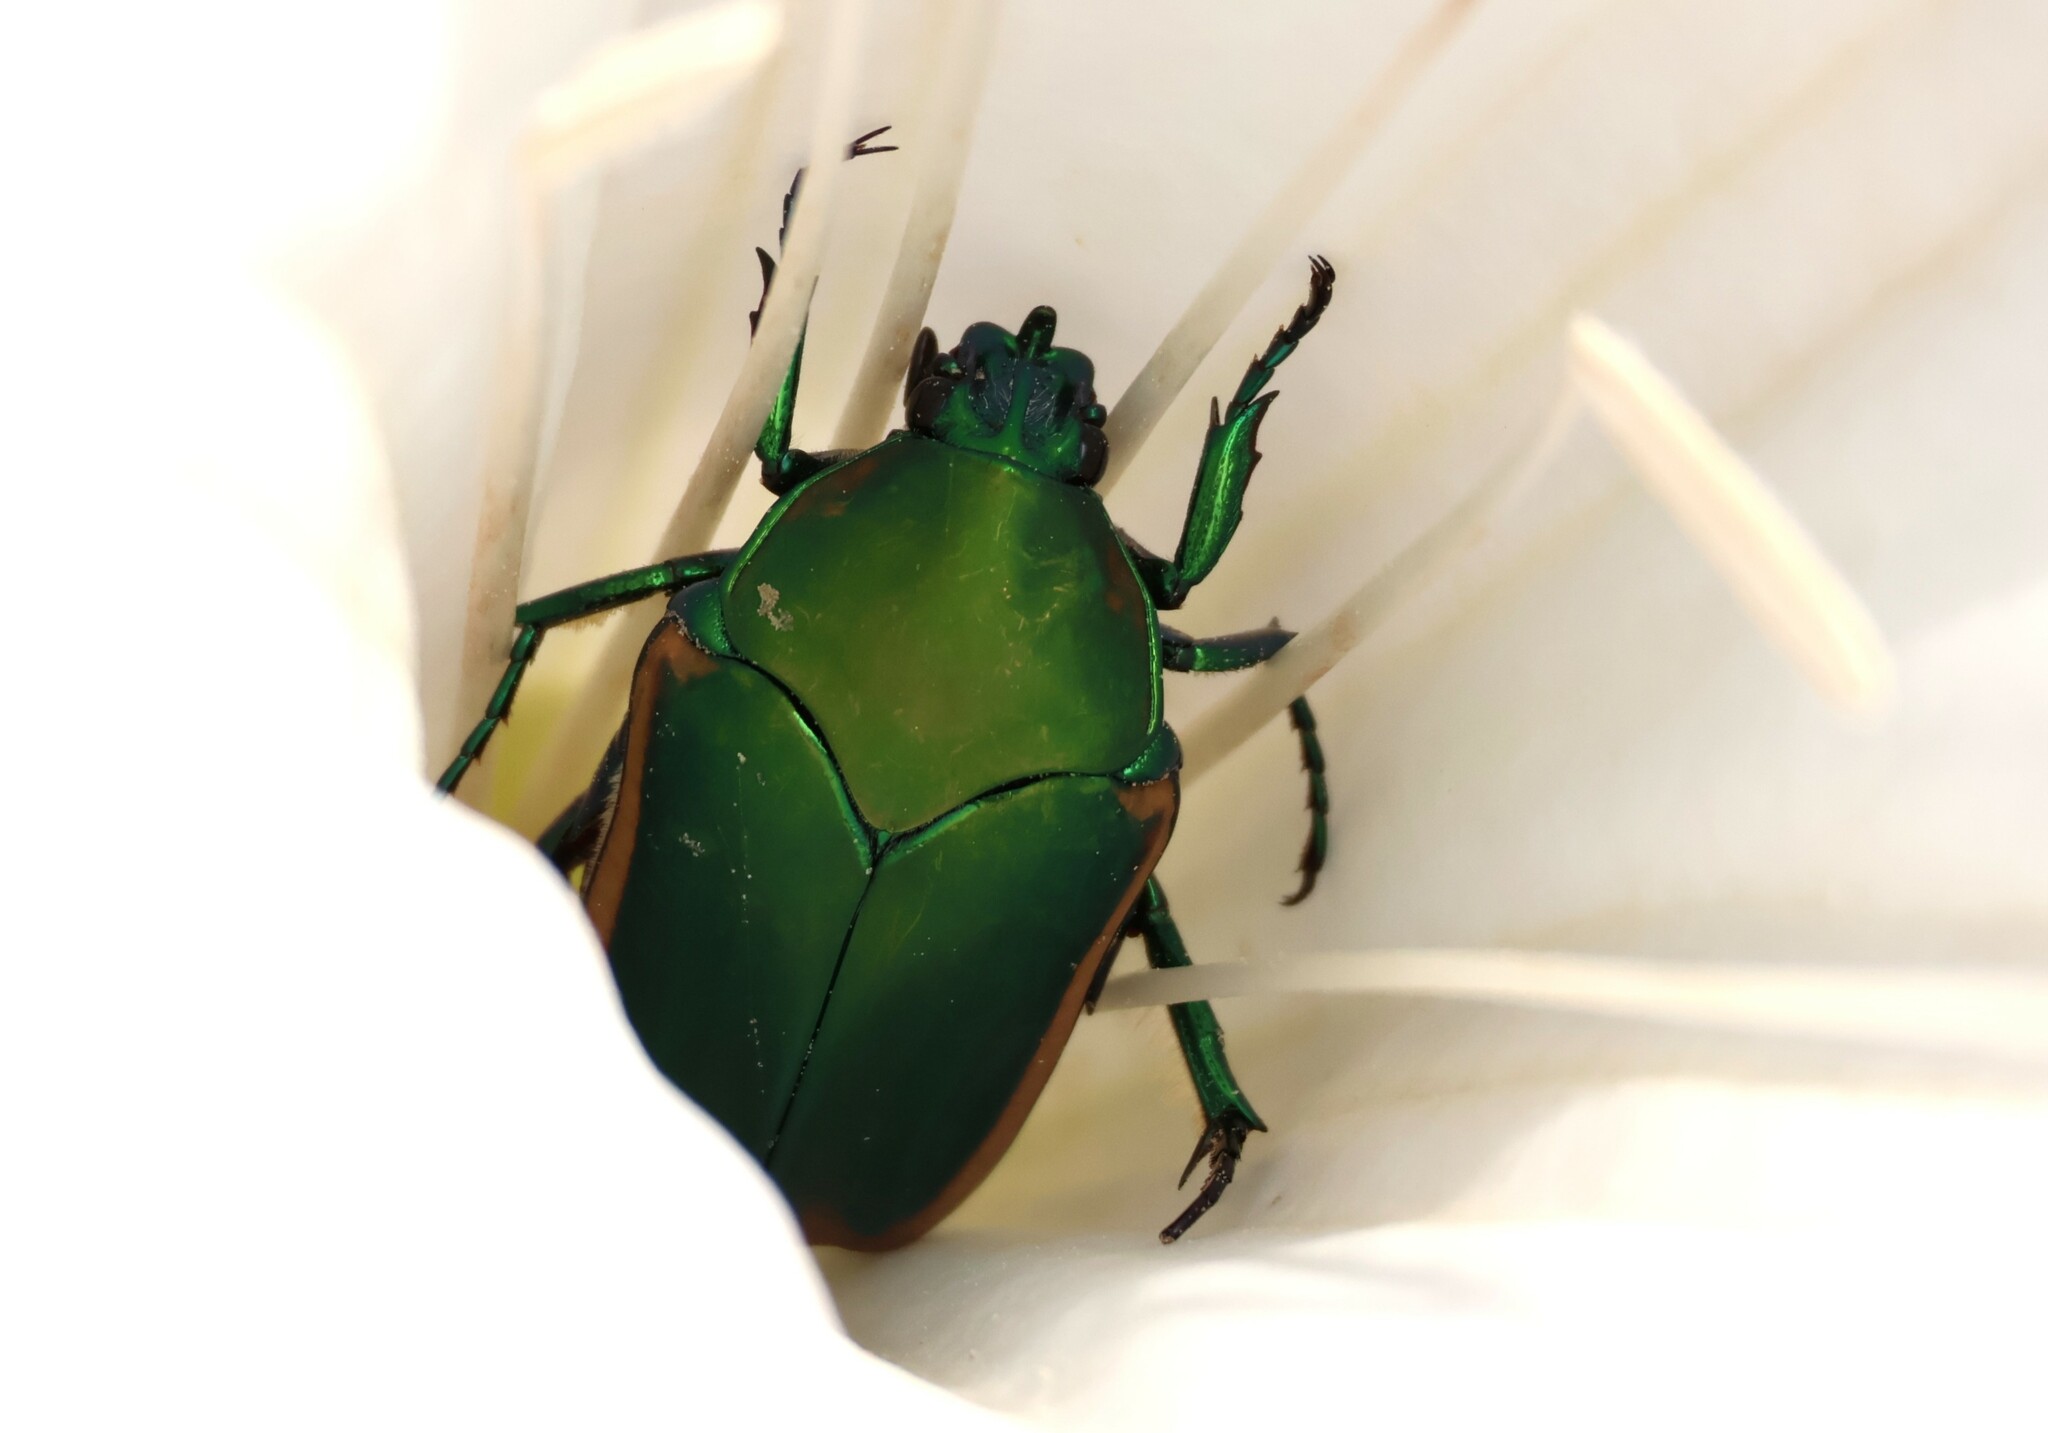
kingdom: Animalia
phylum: Arthropoda
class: Insecta
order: Coleoptera
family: Scarabaeidae
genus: Cotinis
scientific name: Cotinis mutabilis
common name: Figeater beetle
